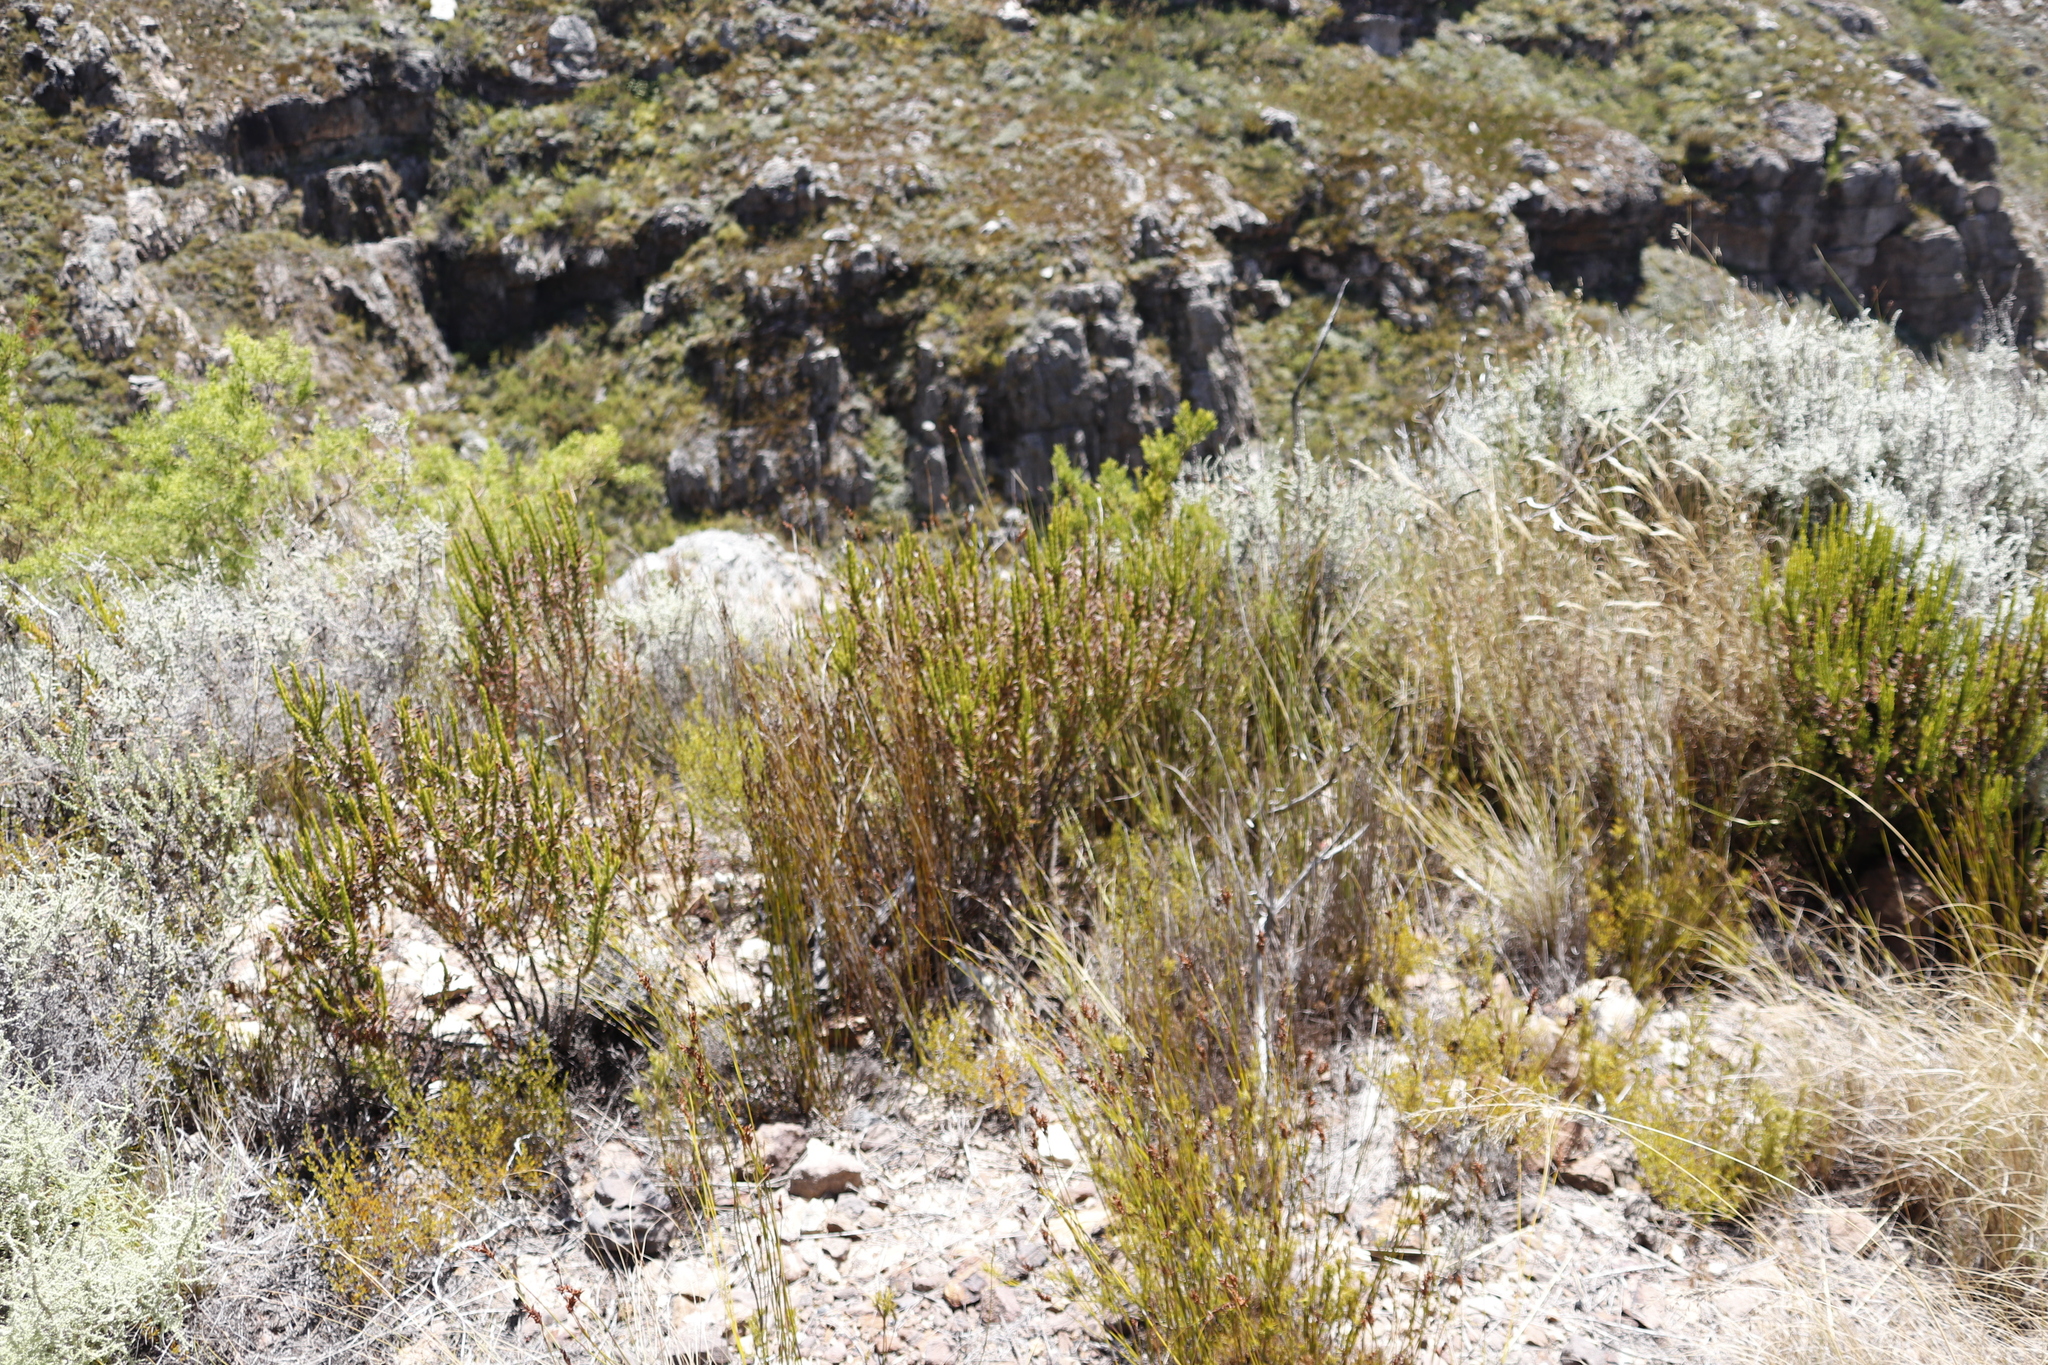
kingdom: Plantae
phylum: Tracheophyta
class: Magnoliopsida
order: Ericales
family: Ericaceae
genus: Erica
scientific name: Erica plukenetii
